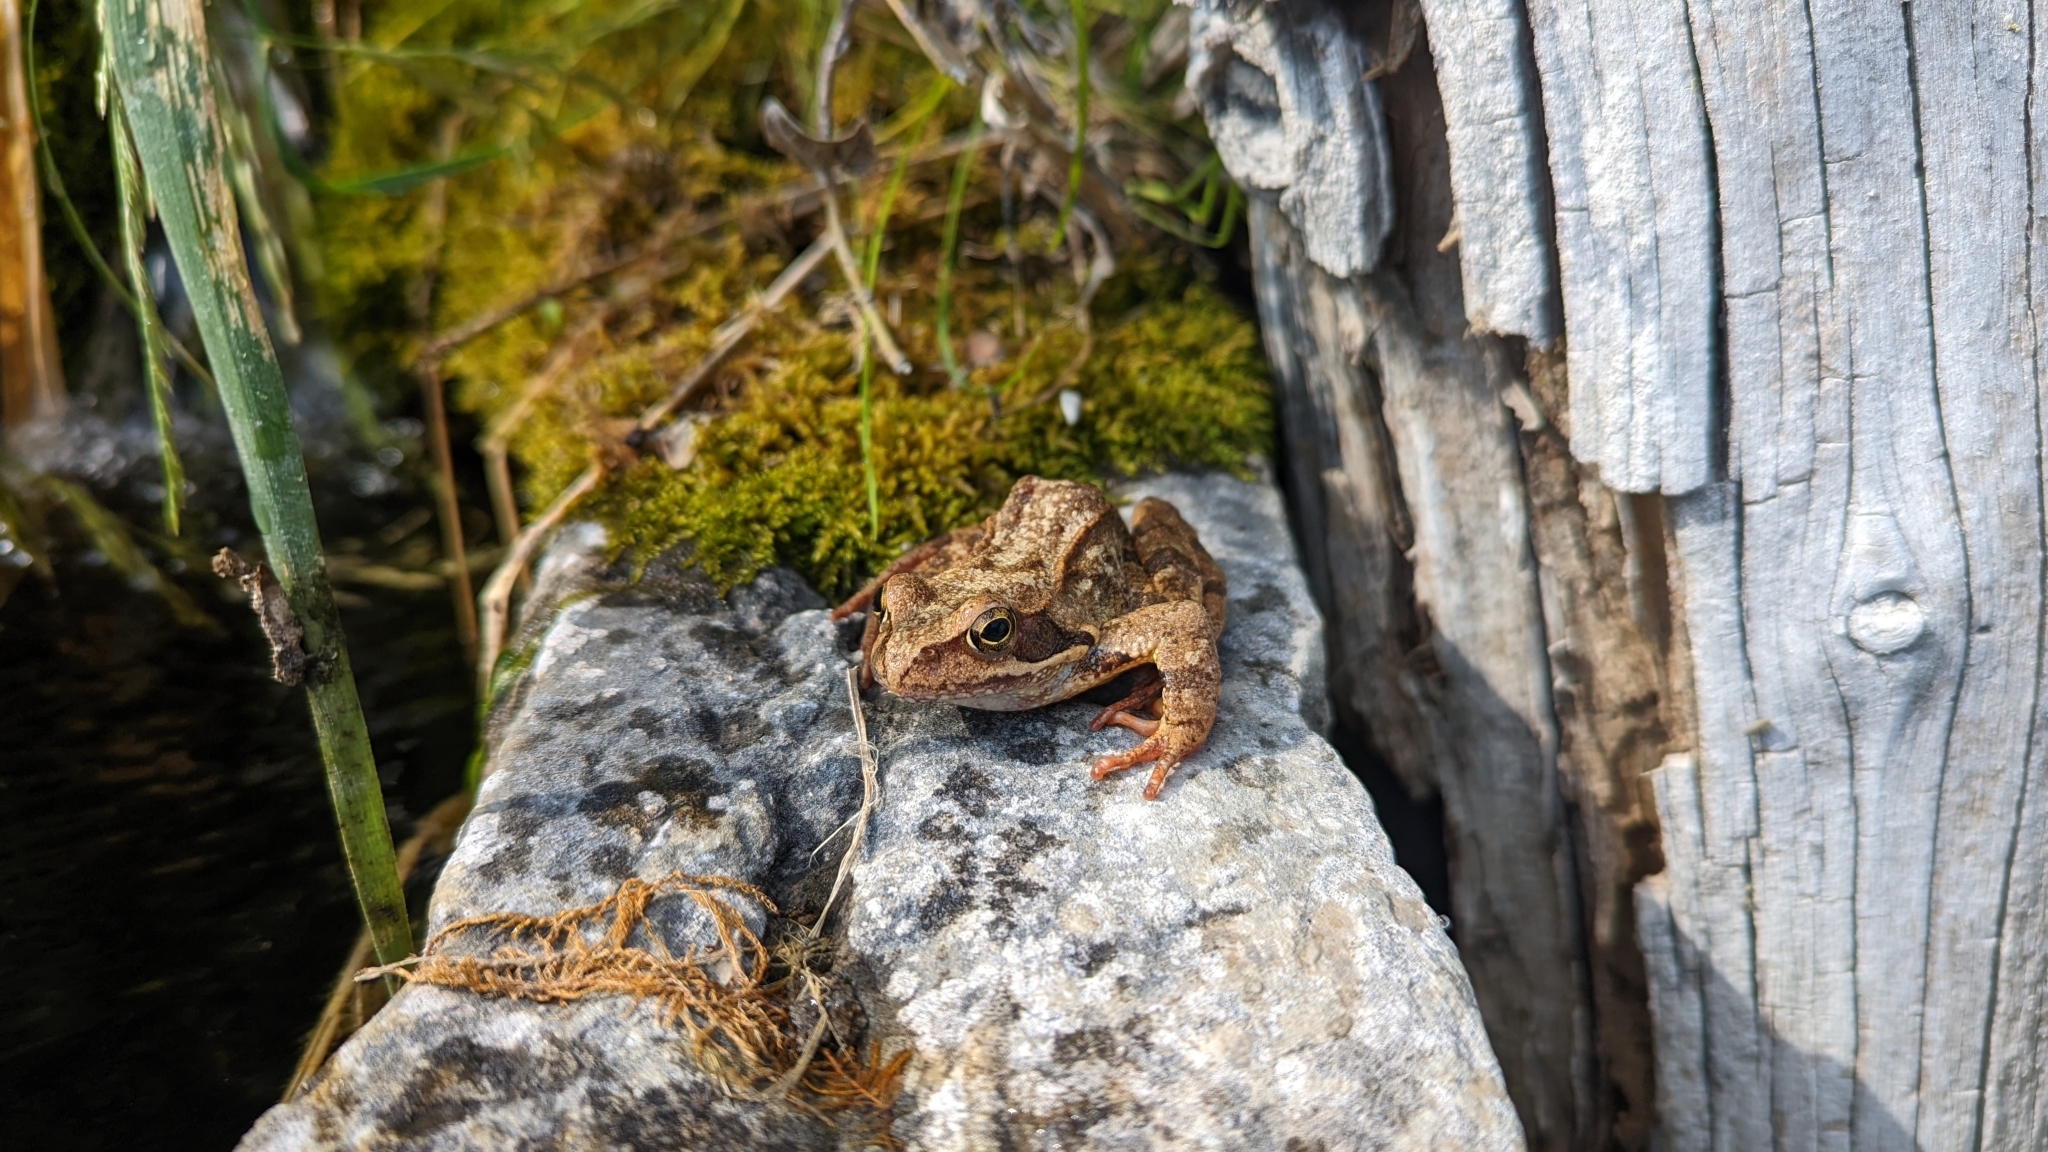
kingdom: Animalia
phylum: Chordata
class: Amphibia
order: Anura
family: Ranidae
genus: Rana
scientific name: Rana temporaria
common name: Common frog
